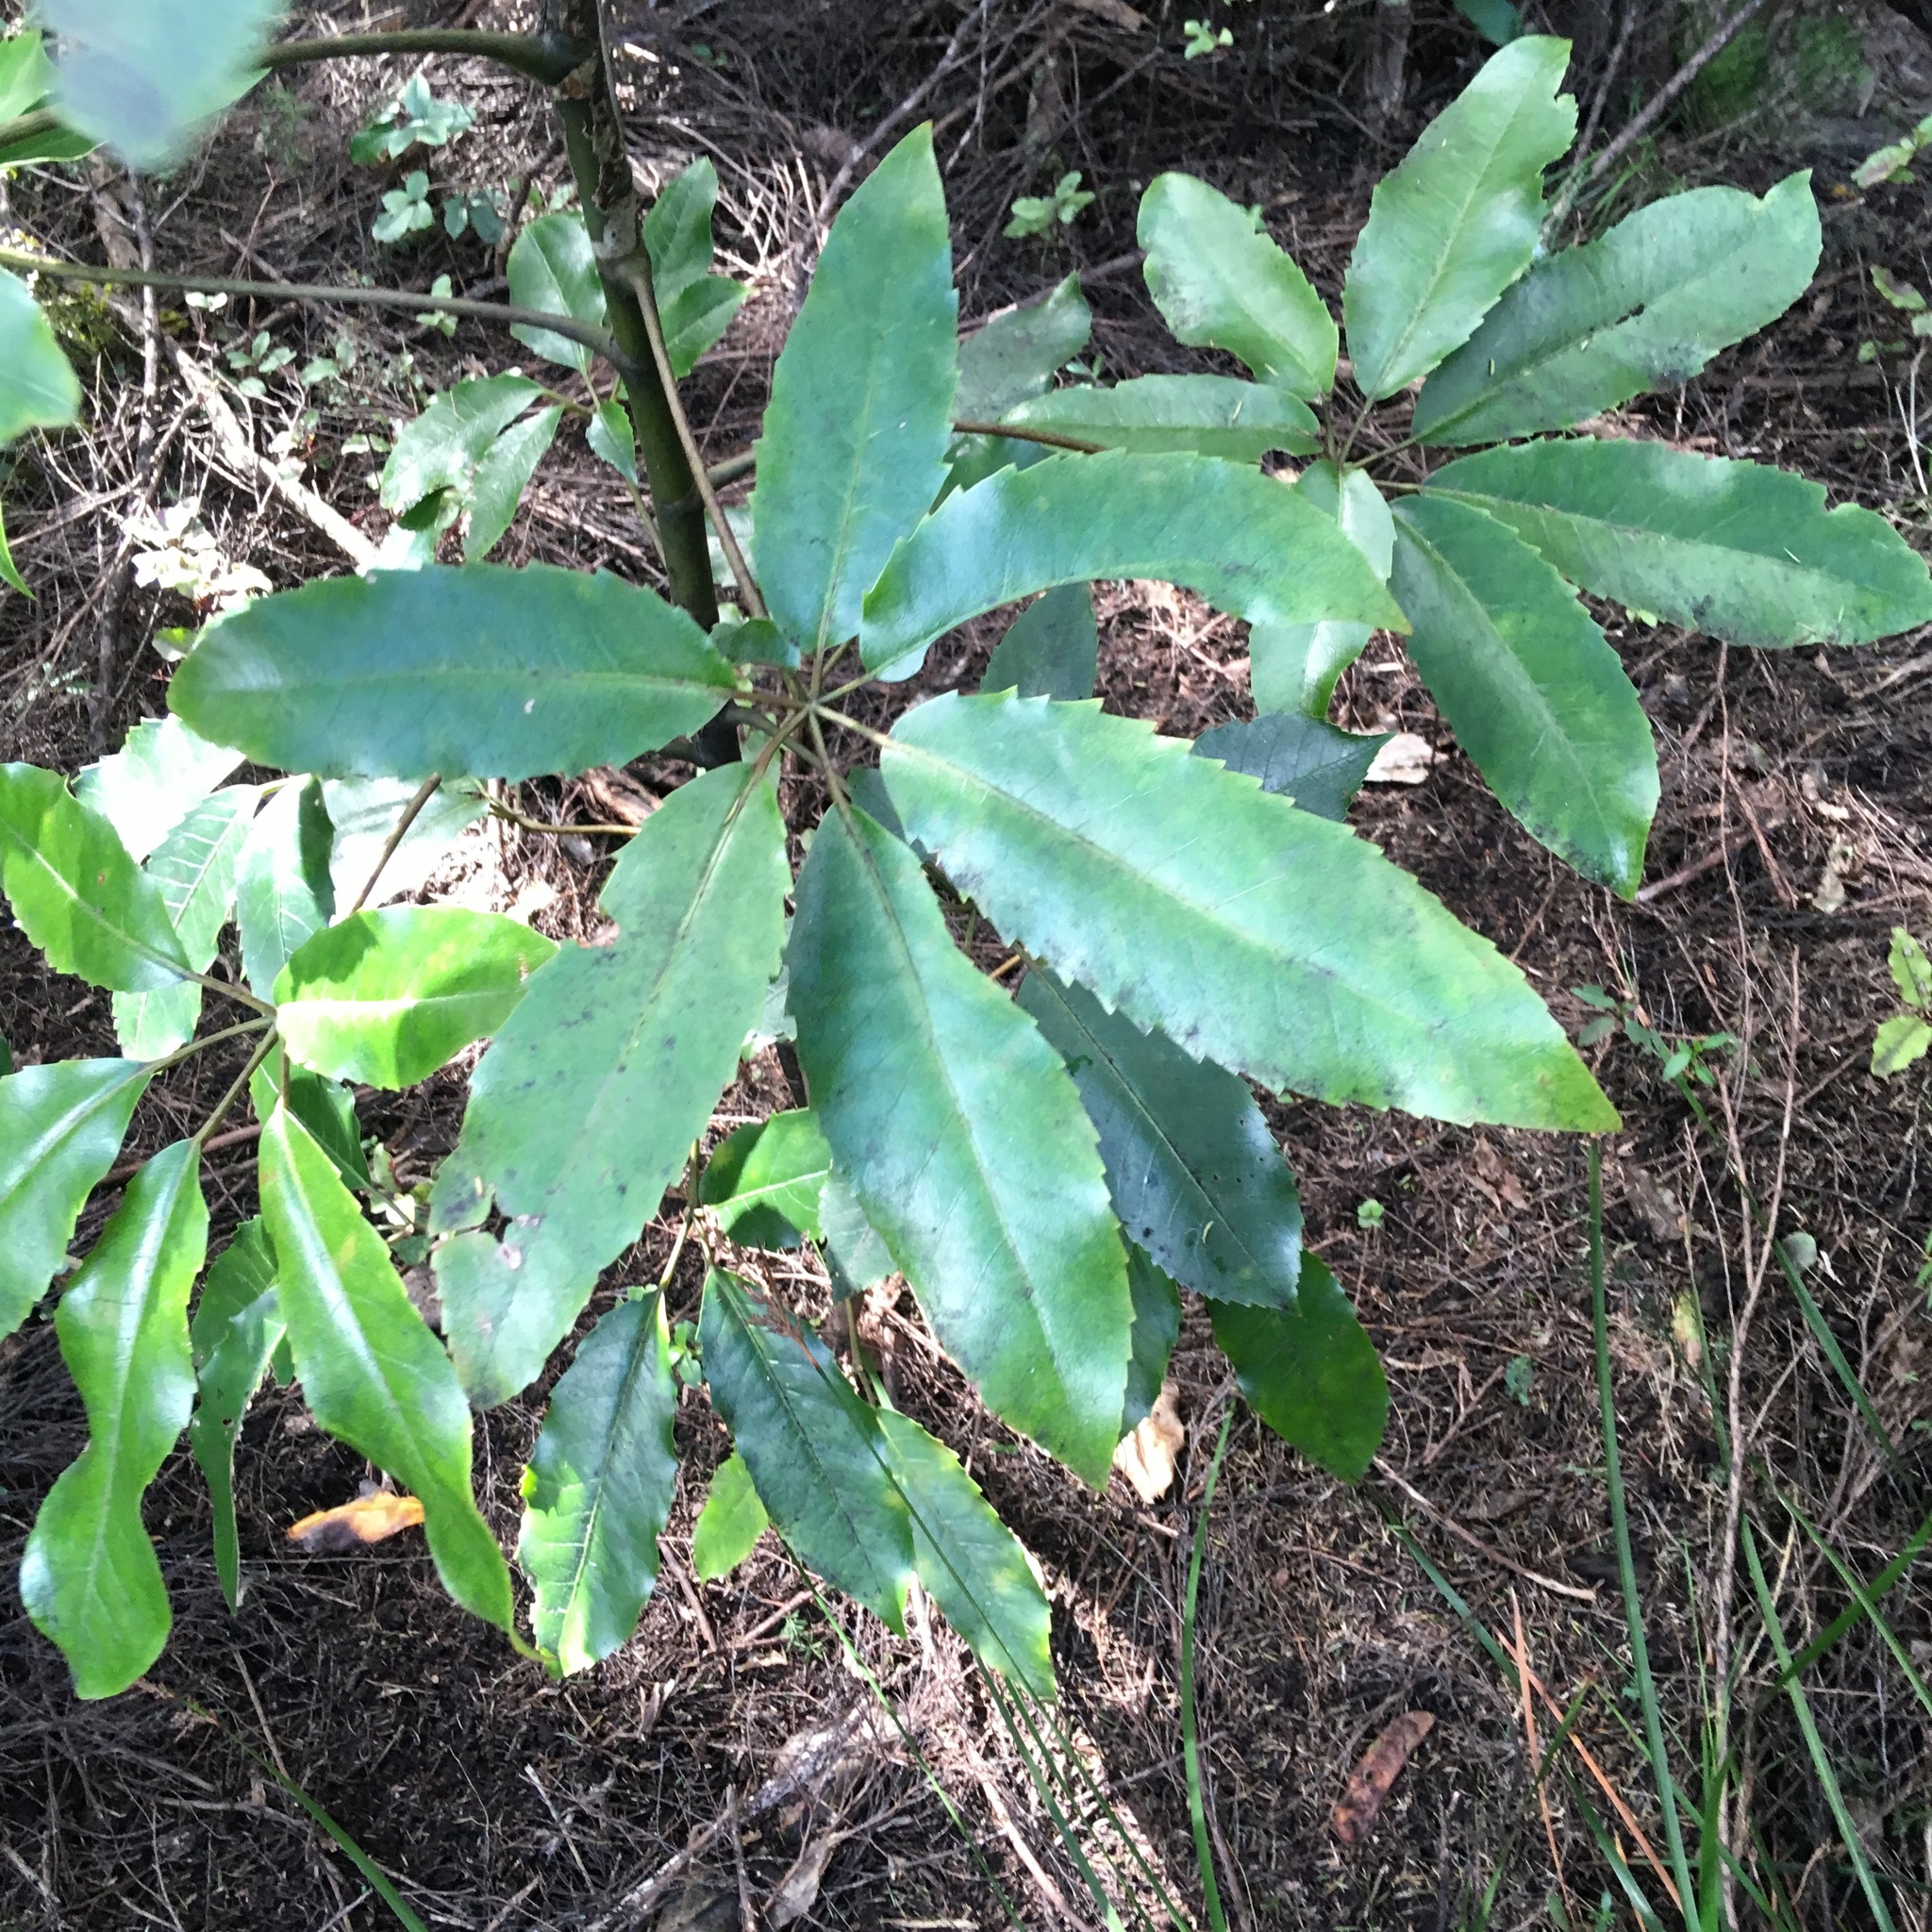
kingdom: Plantae
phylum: Tracheophyta
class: Magnoliopsida
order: Apiales
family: Araliaceae
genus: Neopanax
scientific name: Neopanax arboreus
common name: Five-fingers
